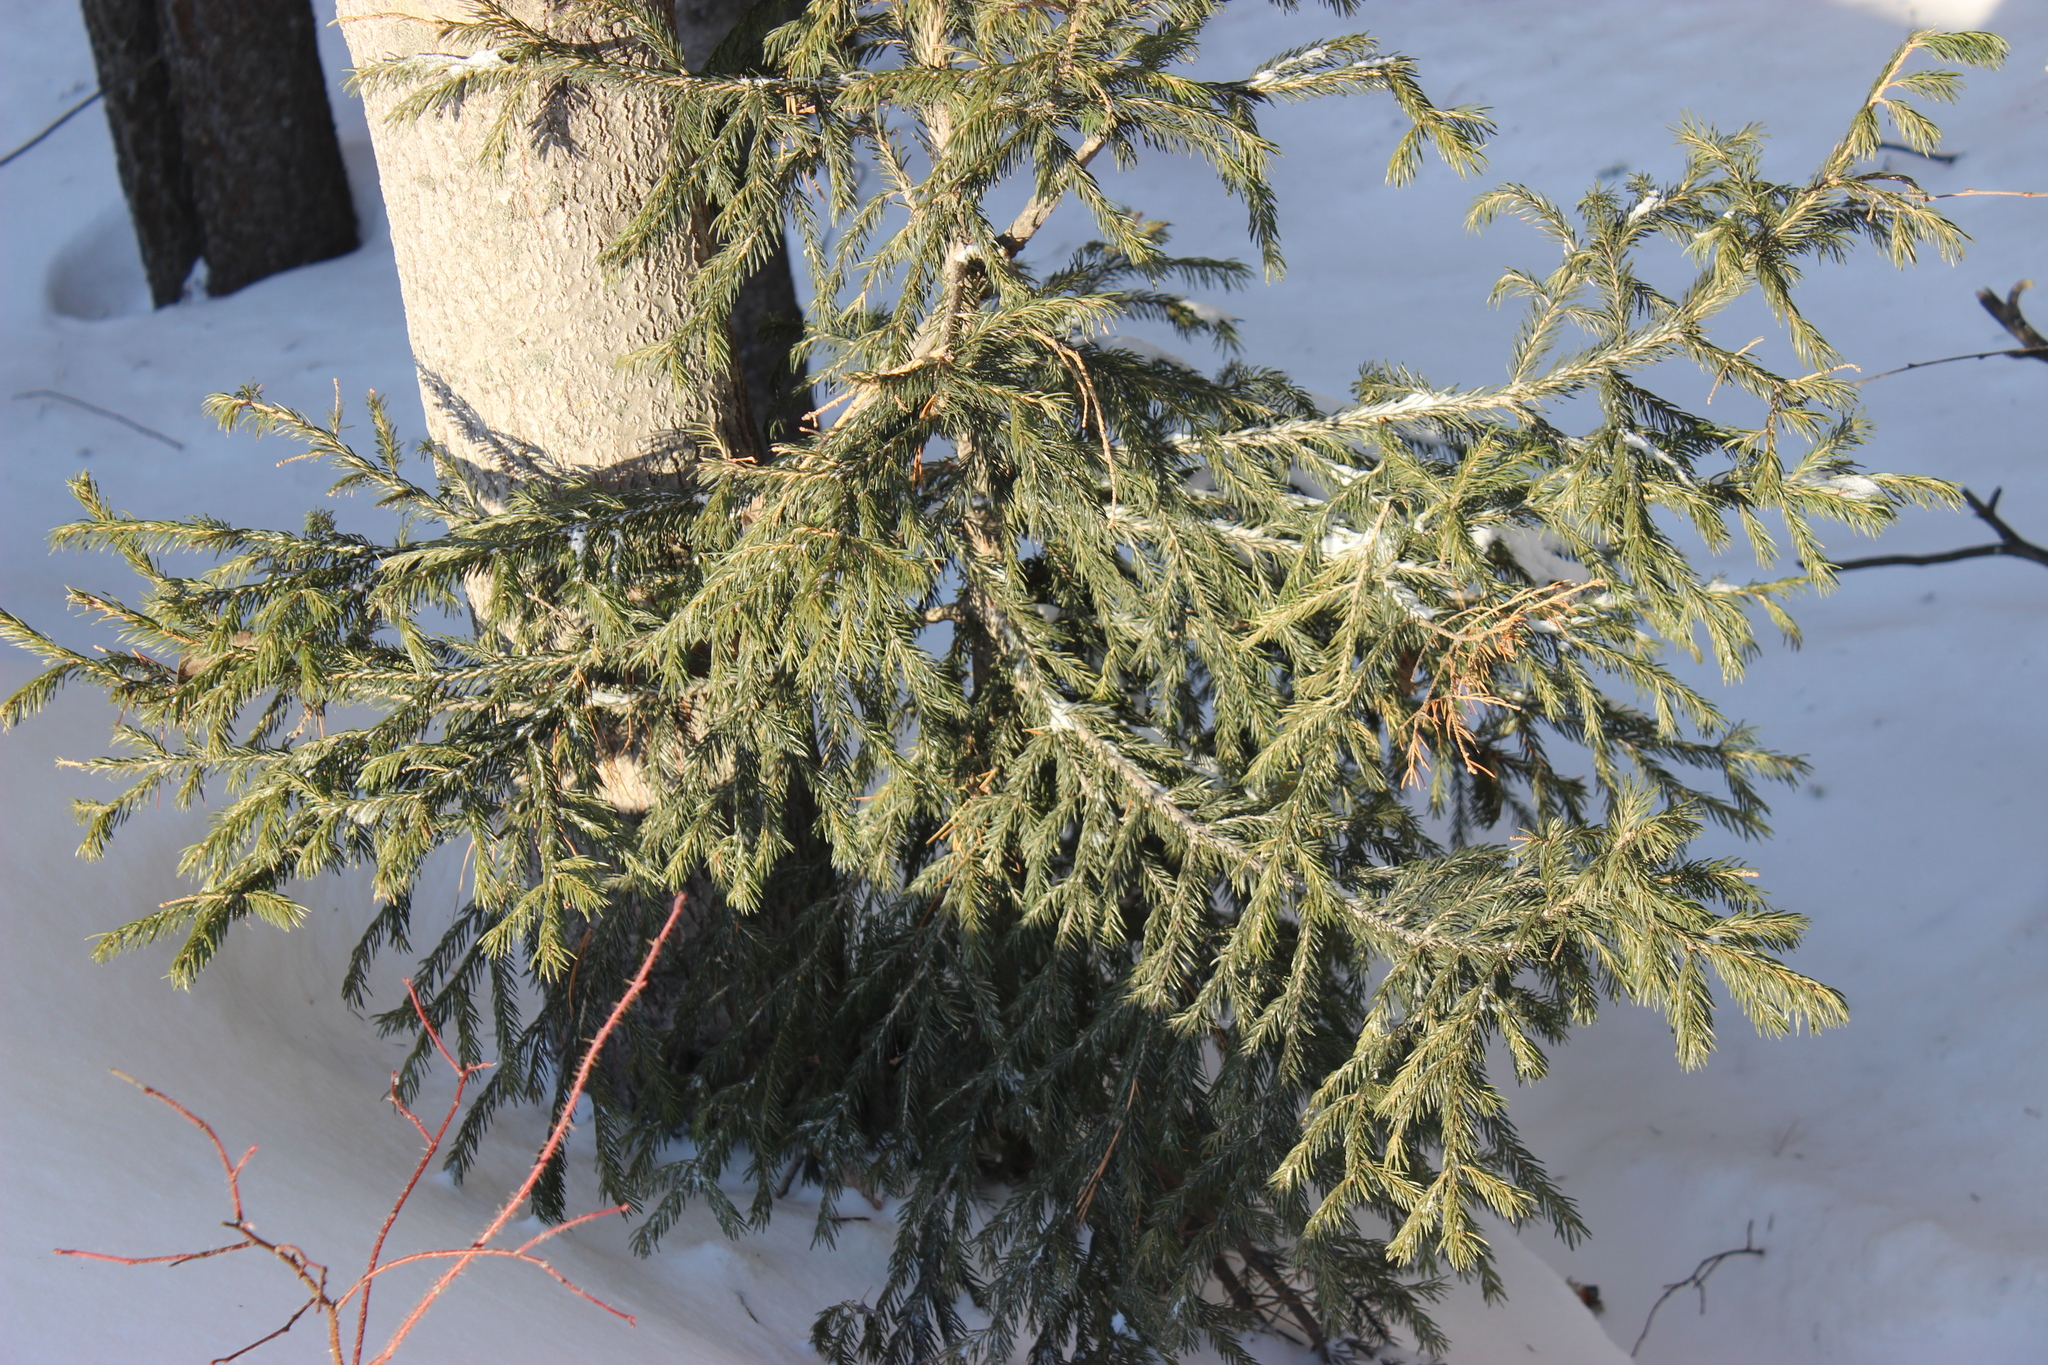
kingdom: Plantae
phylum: Tracheophyta
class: Pinopsida
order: Pinales
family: Pinaceae
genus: Picea
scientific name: Picea obovata
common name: Siberian spruce
